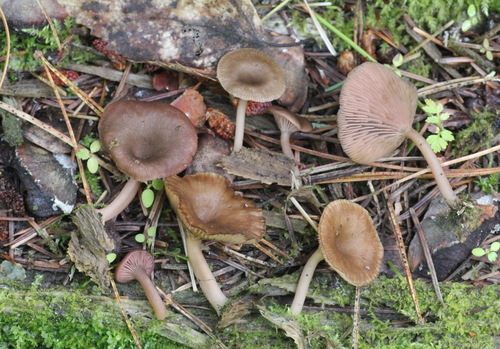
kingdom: Fungi
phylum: Basidiomycota
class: Agaricomycetes
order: Agaricales
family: Hygrophoraceae
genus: Arrhenia
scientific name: Arrhenia discorosea
